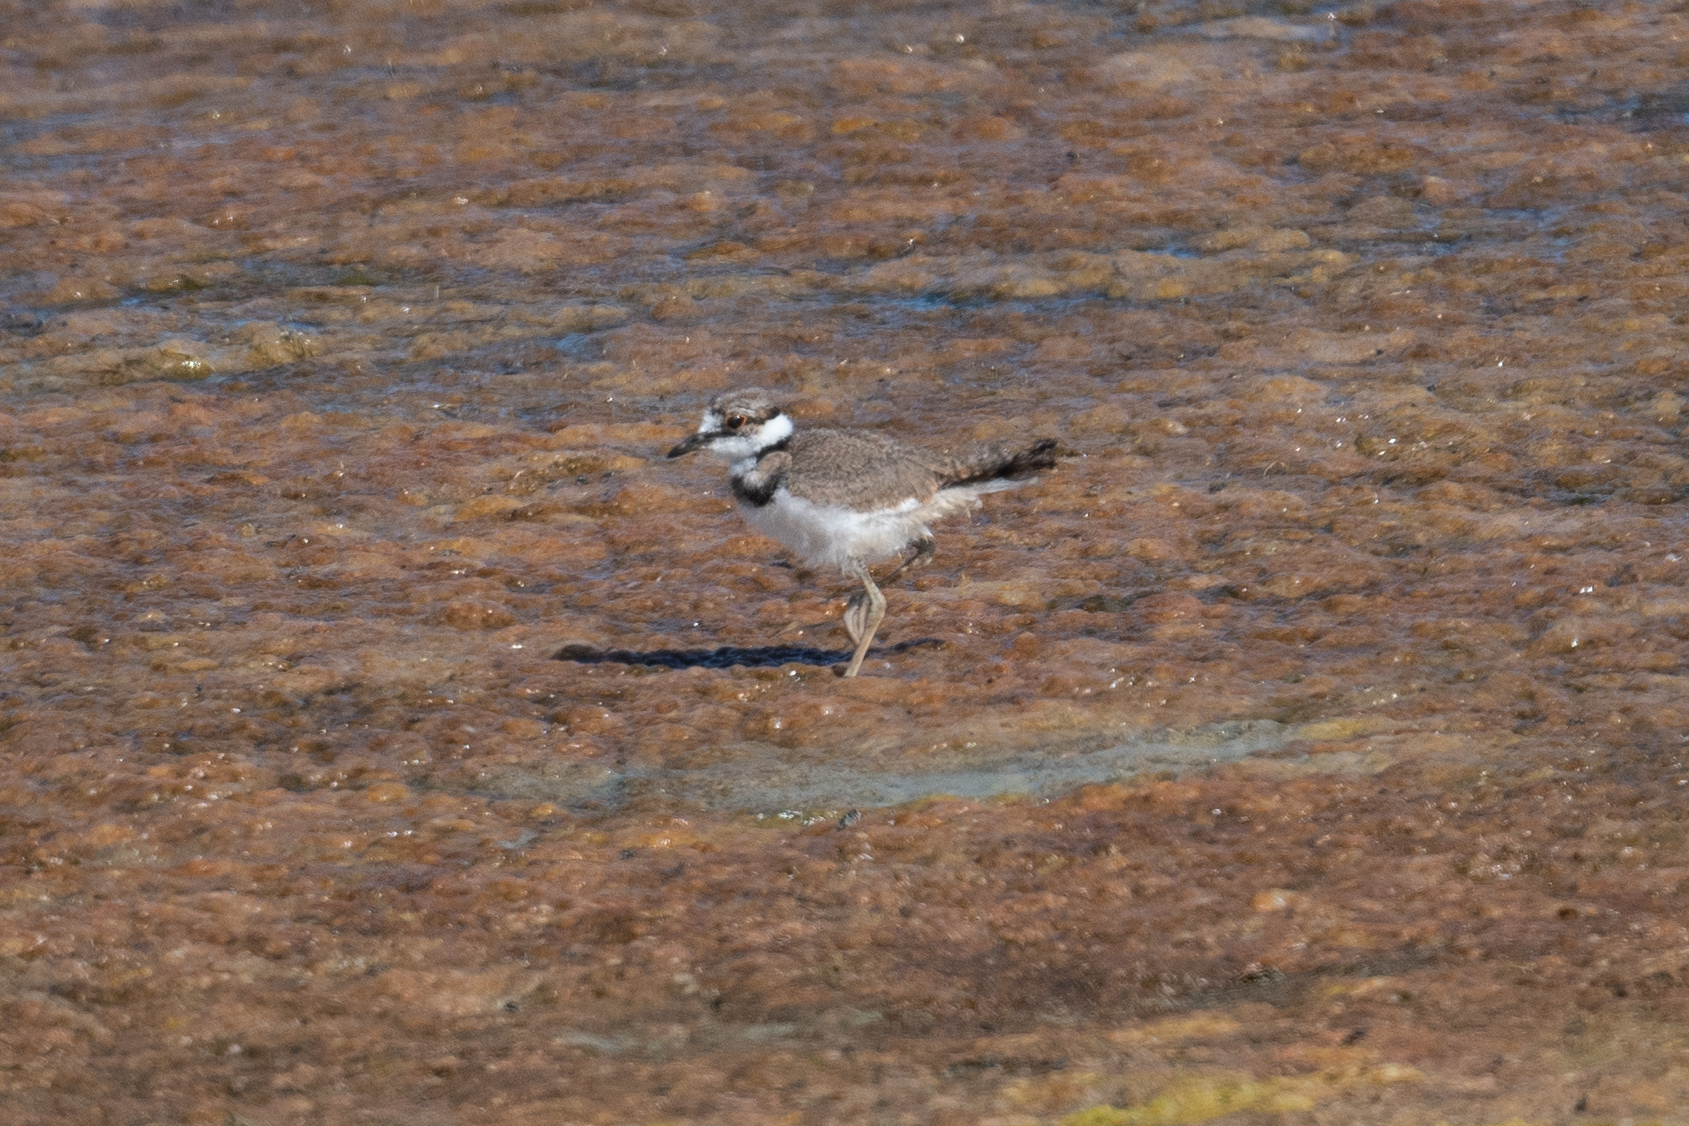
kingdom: Animalia
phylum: Chordata
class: Aves
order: Charadriiformes
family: Charadriidae
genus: Charadrius
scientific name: Charadrius vociferus
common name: Killdeer
